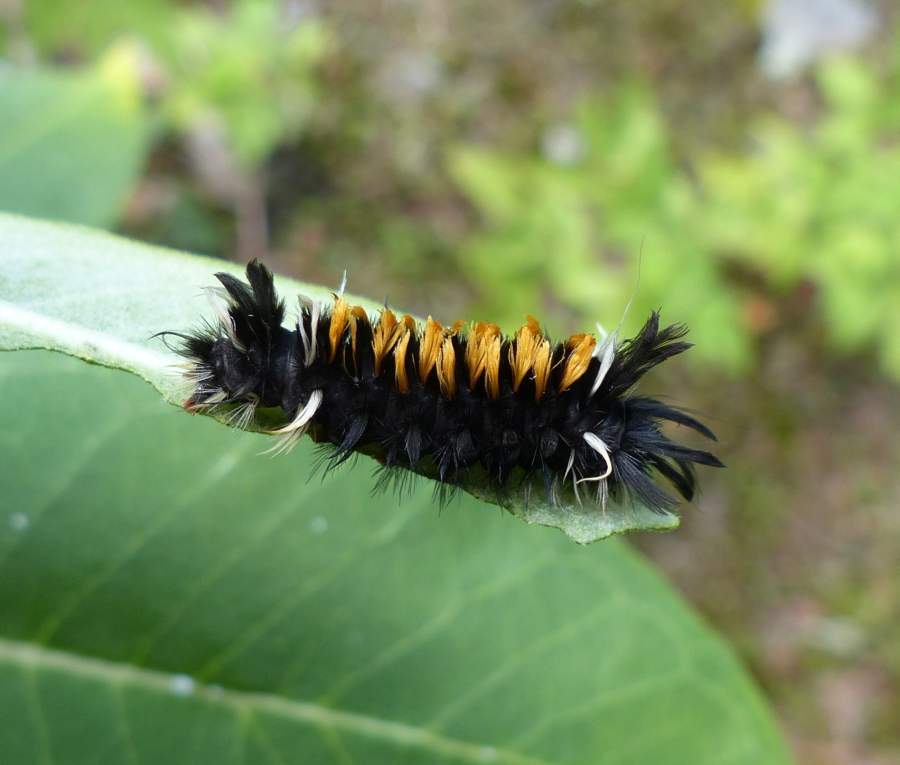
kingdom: Animalia
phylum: Arthropoda
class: Insecta
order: Lepidoptera
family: Erebidae
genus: Euchaetes
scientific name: Euchaetes egle
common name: Milkweed tussock moth
